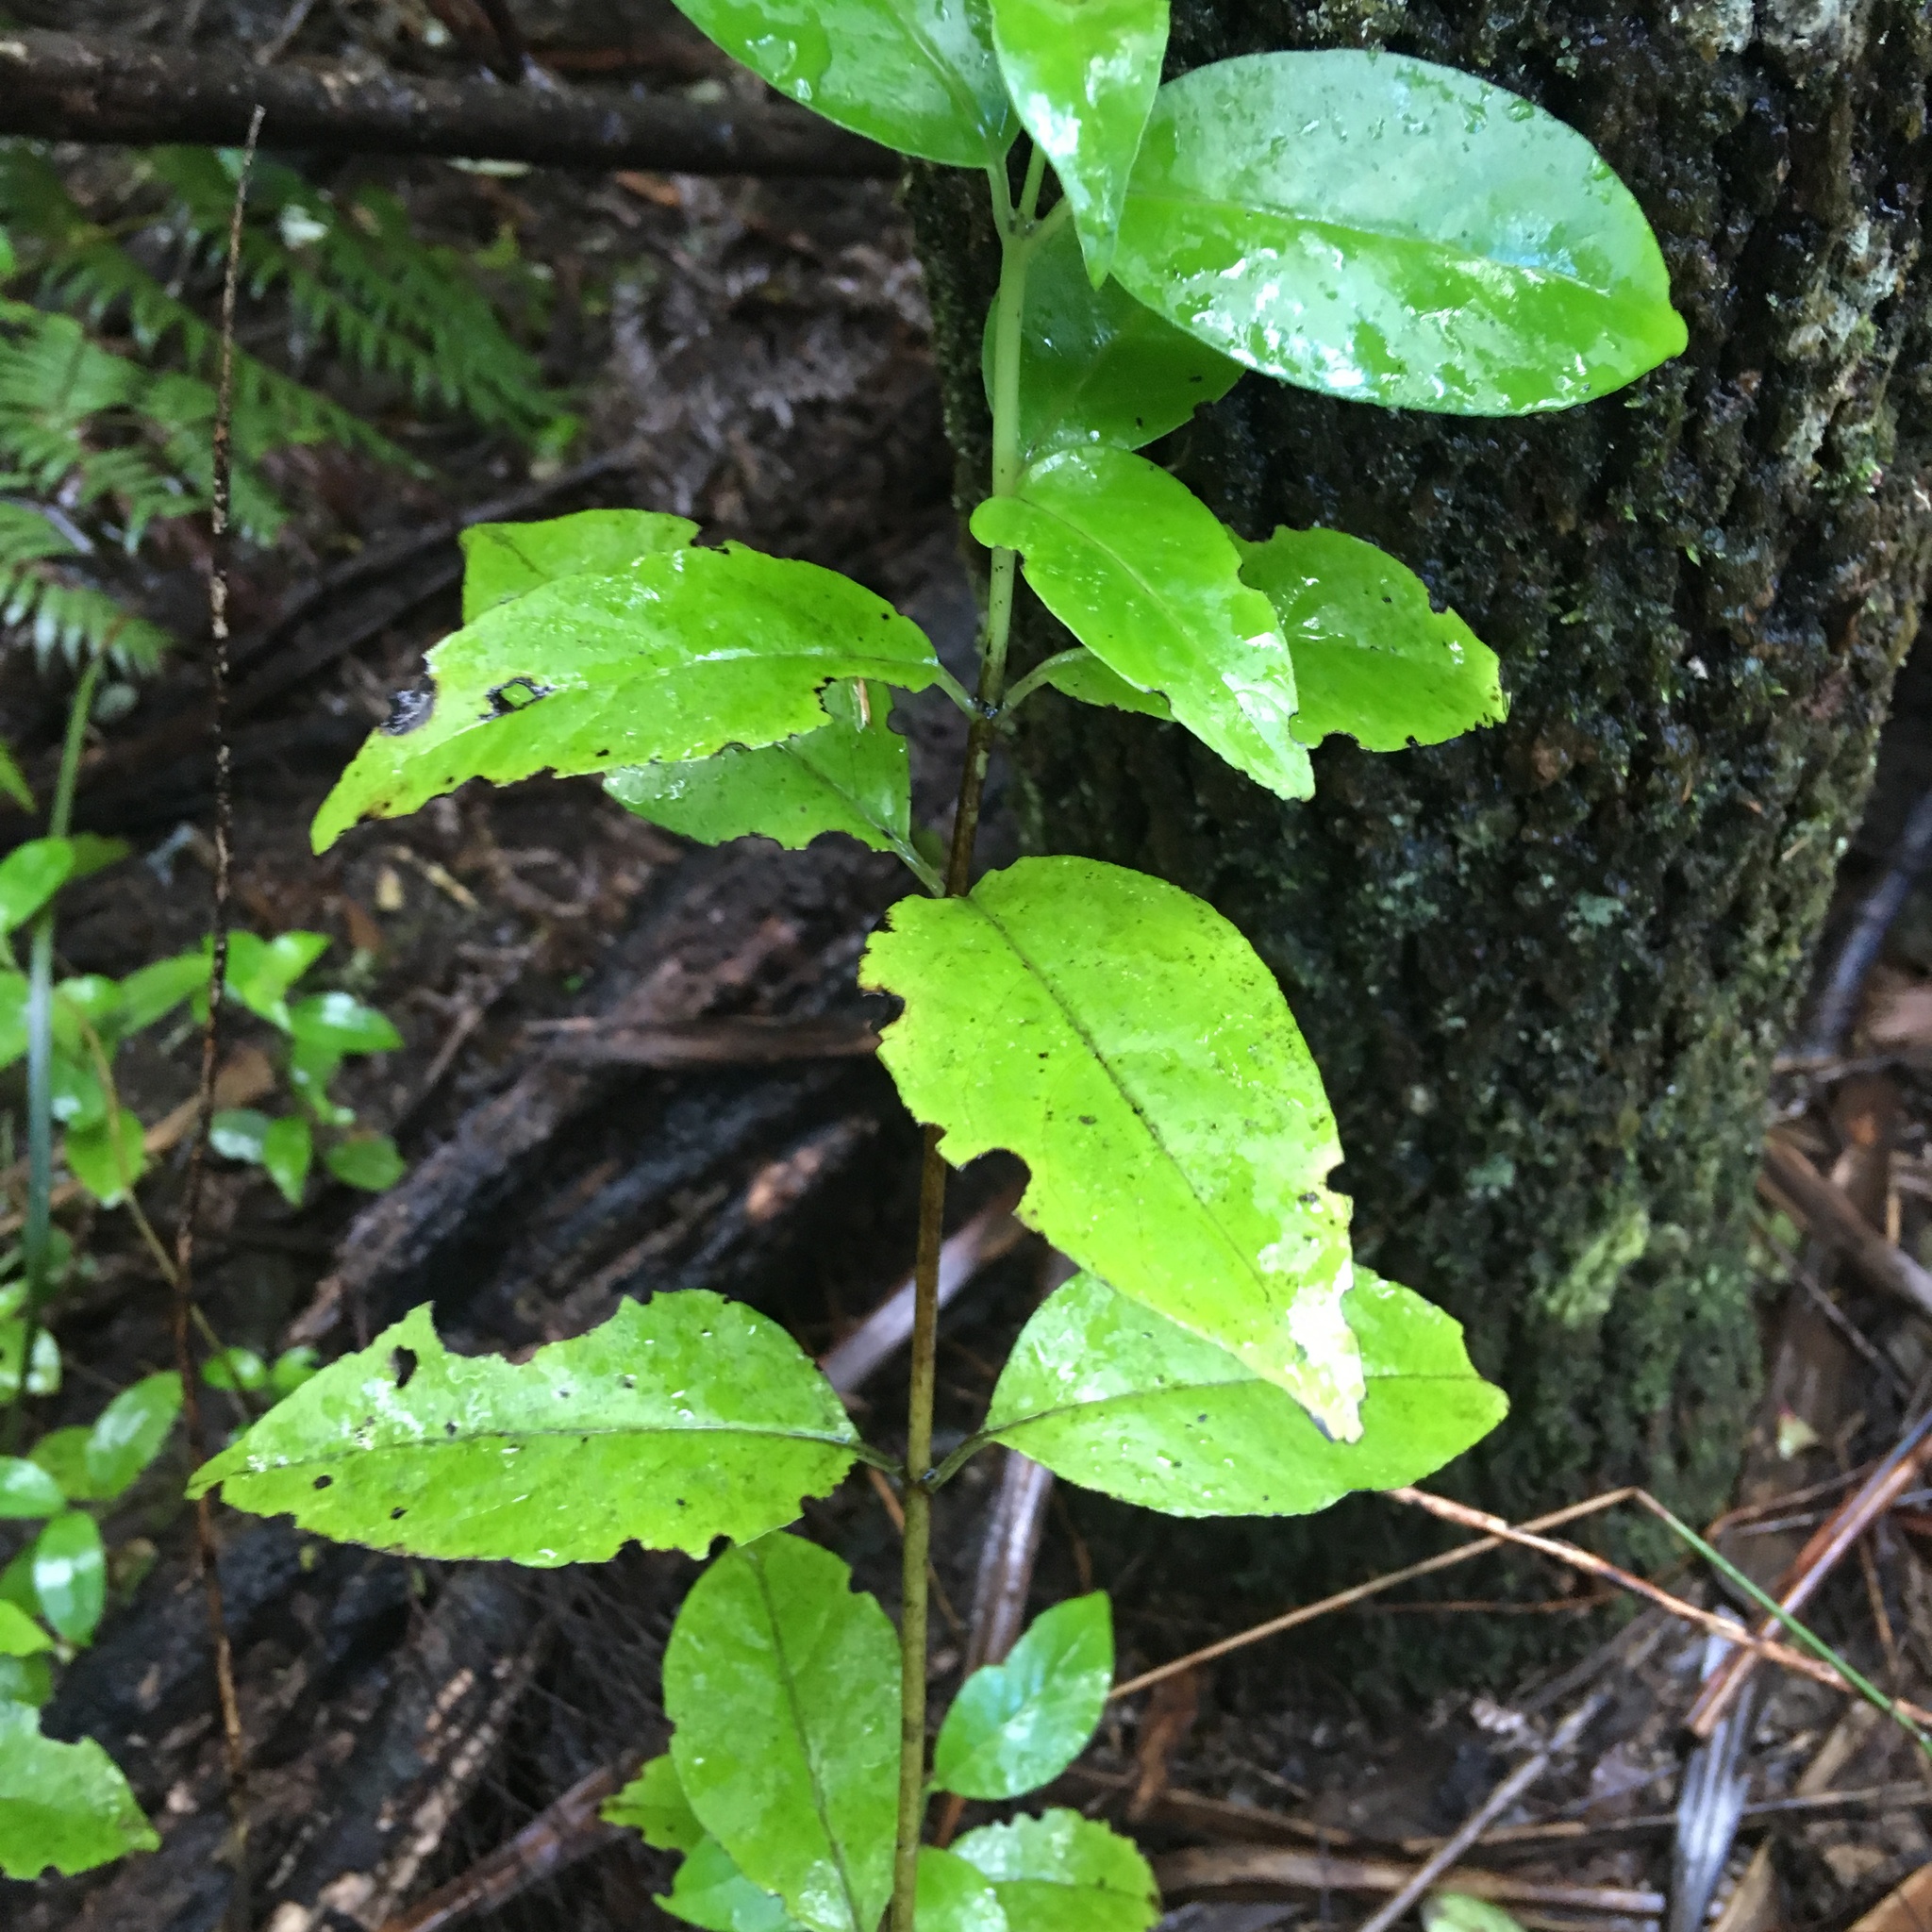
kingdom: Plantae
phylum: Tracheophyta
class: Magnoliopsida
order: Gentianales
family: Loganiaceae
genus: Geniostoma
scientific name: Geniostoma ligustrifolium
